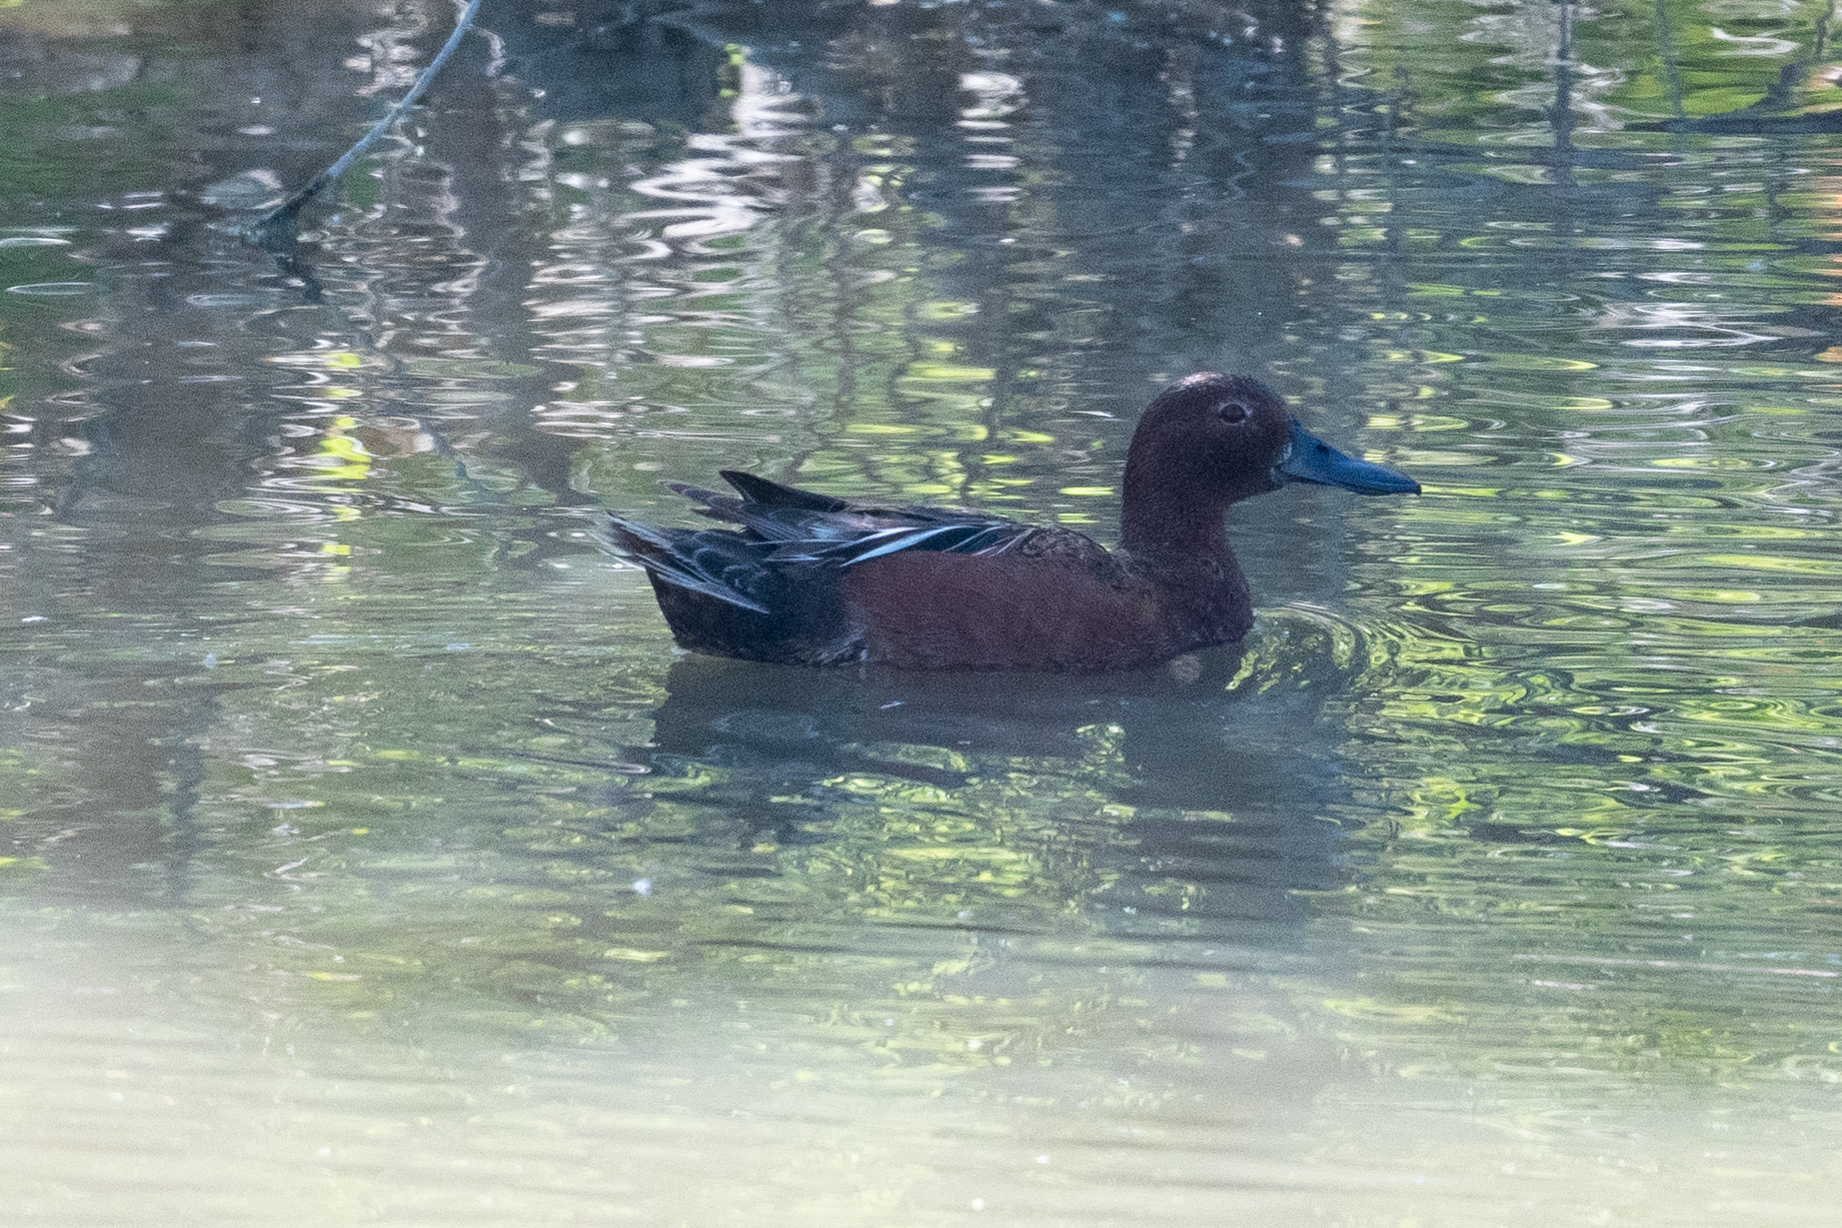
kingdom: Animalia
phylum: Chordata
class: Aves
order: Anseriformes
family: Anatidae
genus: Spatula
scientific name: Spatula cyanoptera
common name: Cinnamon teal
